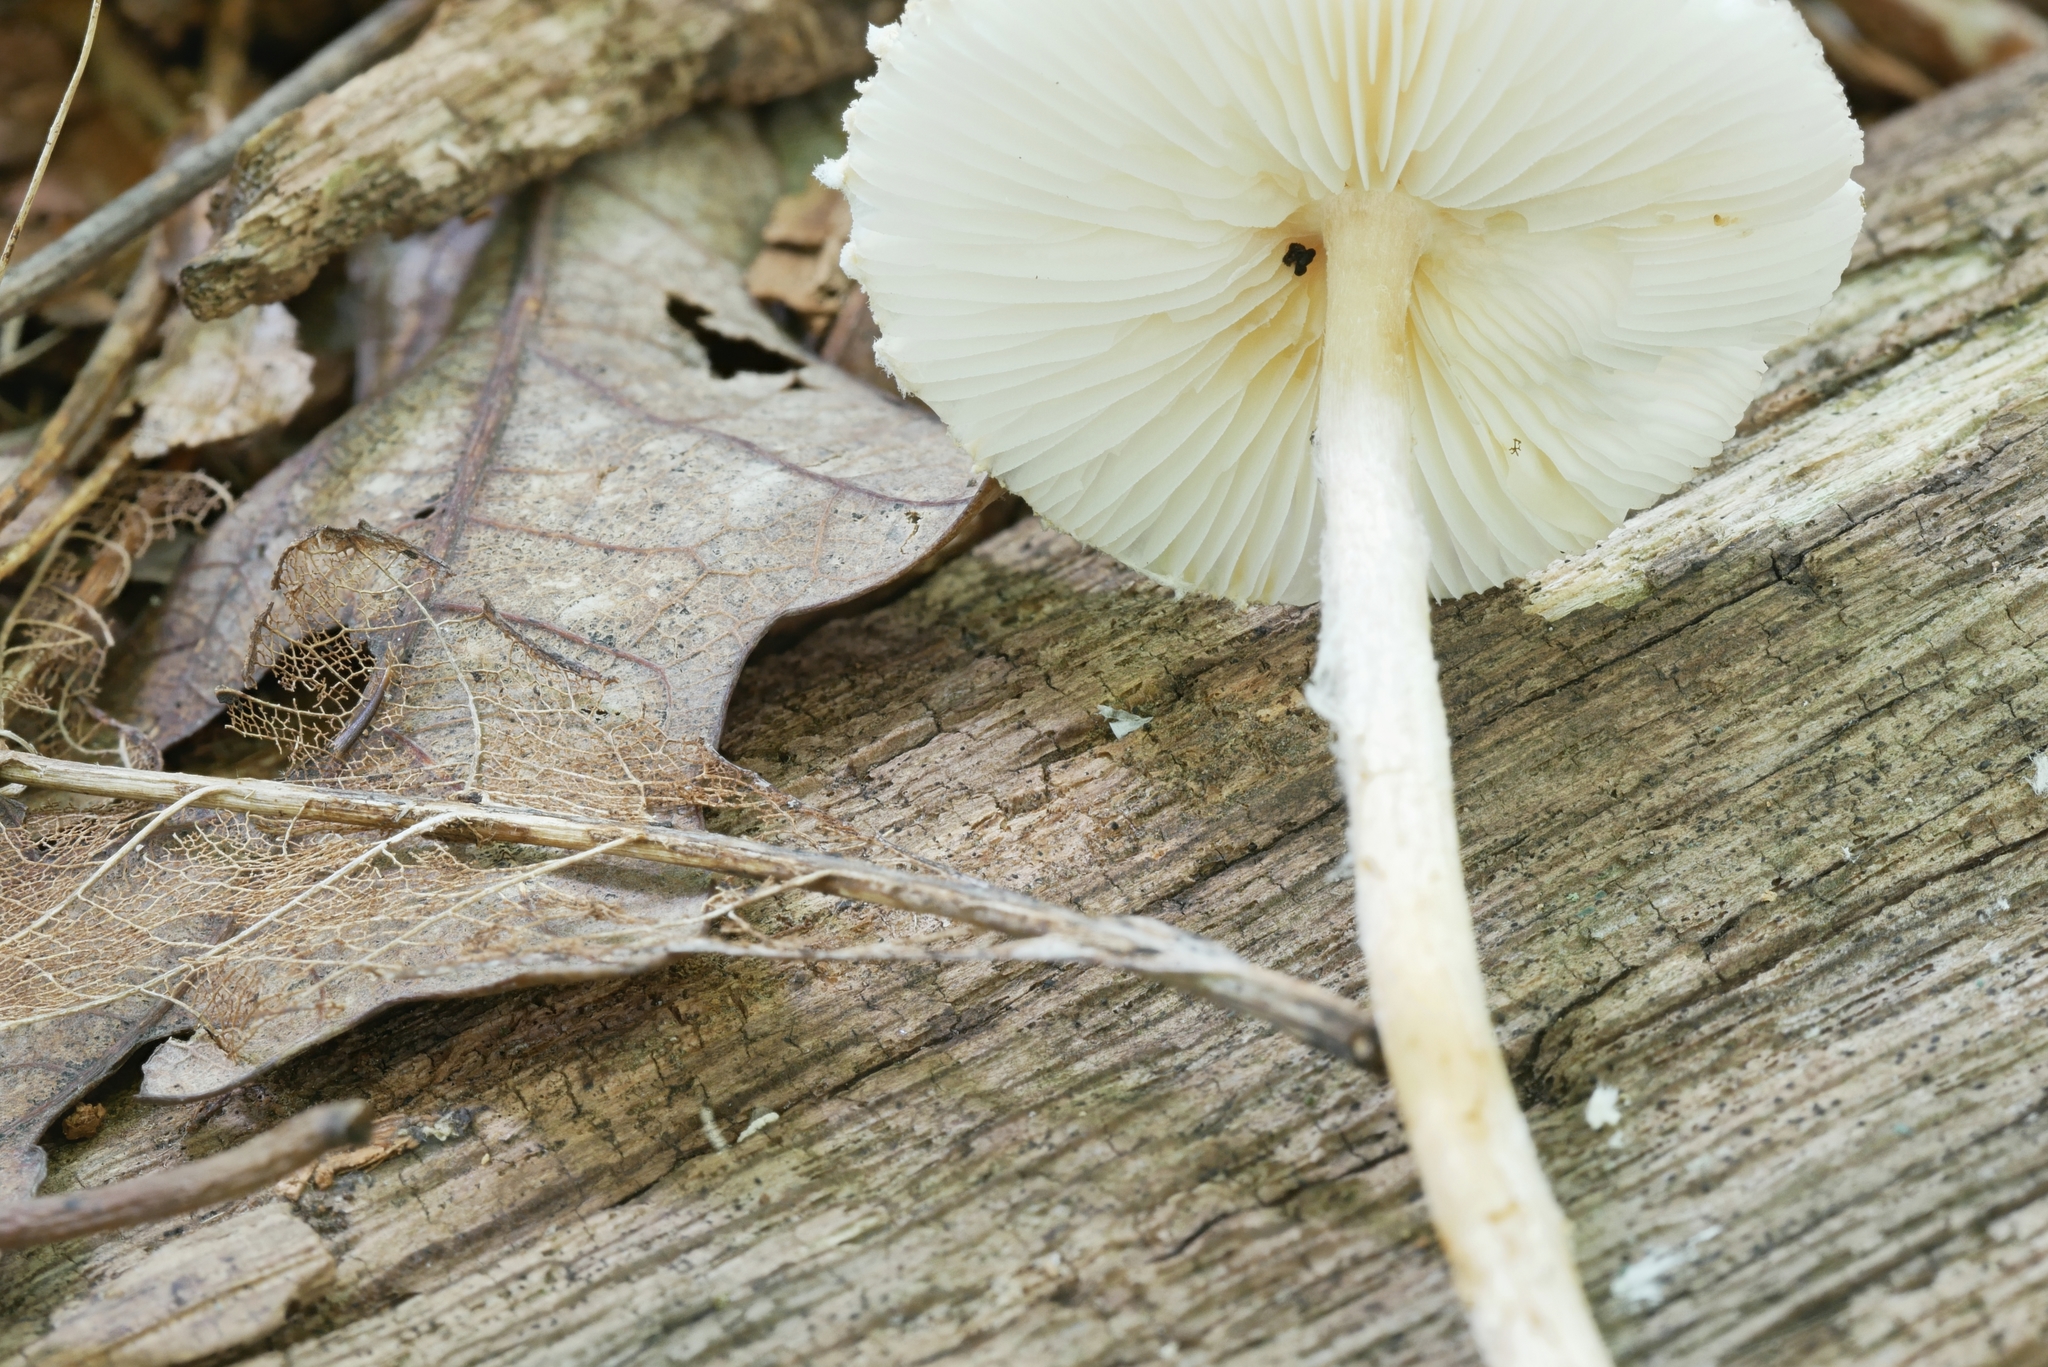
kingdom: Fungi
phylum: Basidiomycota
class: Agaricomycetes
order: Agaricales
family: Agaricaceae
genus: Lepiota
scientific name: Lepiota clypeolaria
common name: Shield dapperling
